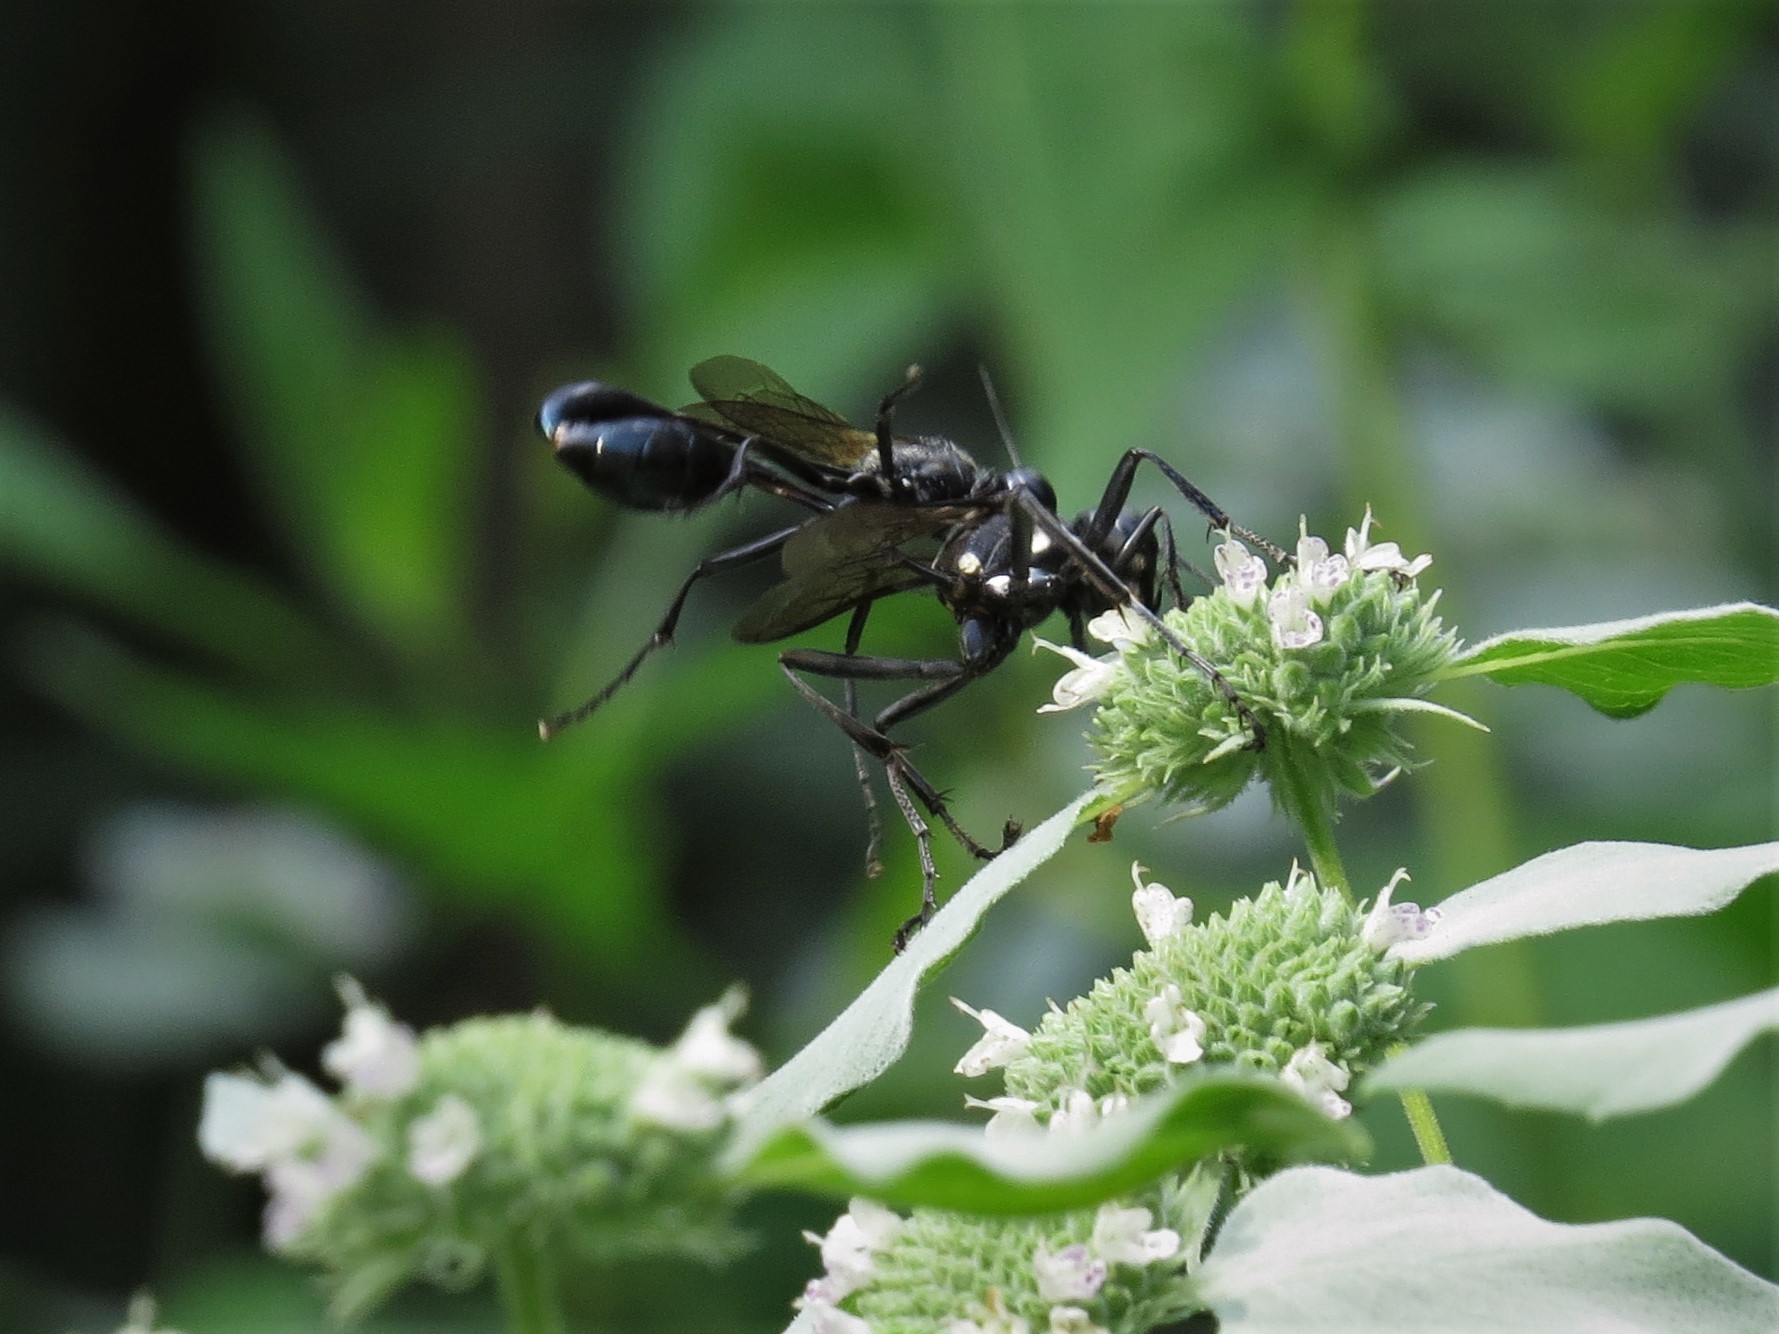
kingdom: Animalia
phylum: Arthropoda
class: Insecta
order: Hymenoptera
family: Sphecidae
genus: Eremnophila
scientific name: Eremnophila aureonotata
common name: Gold-marked thread-waisted wasp
